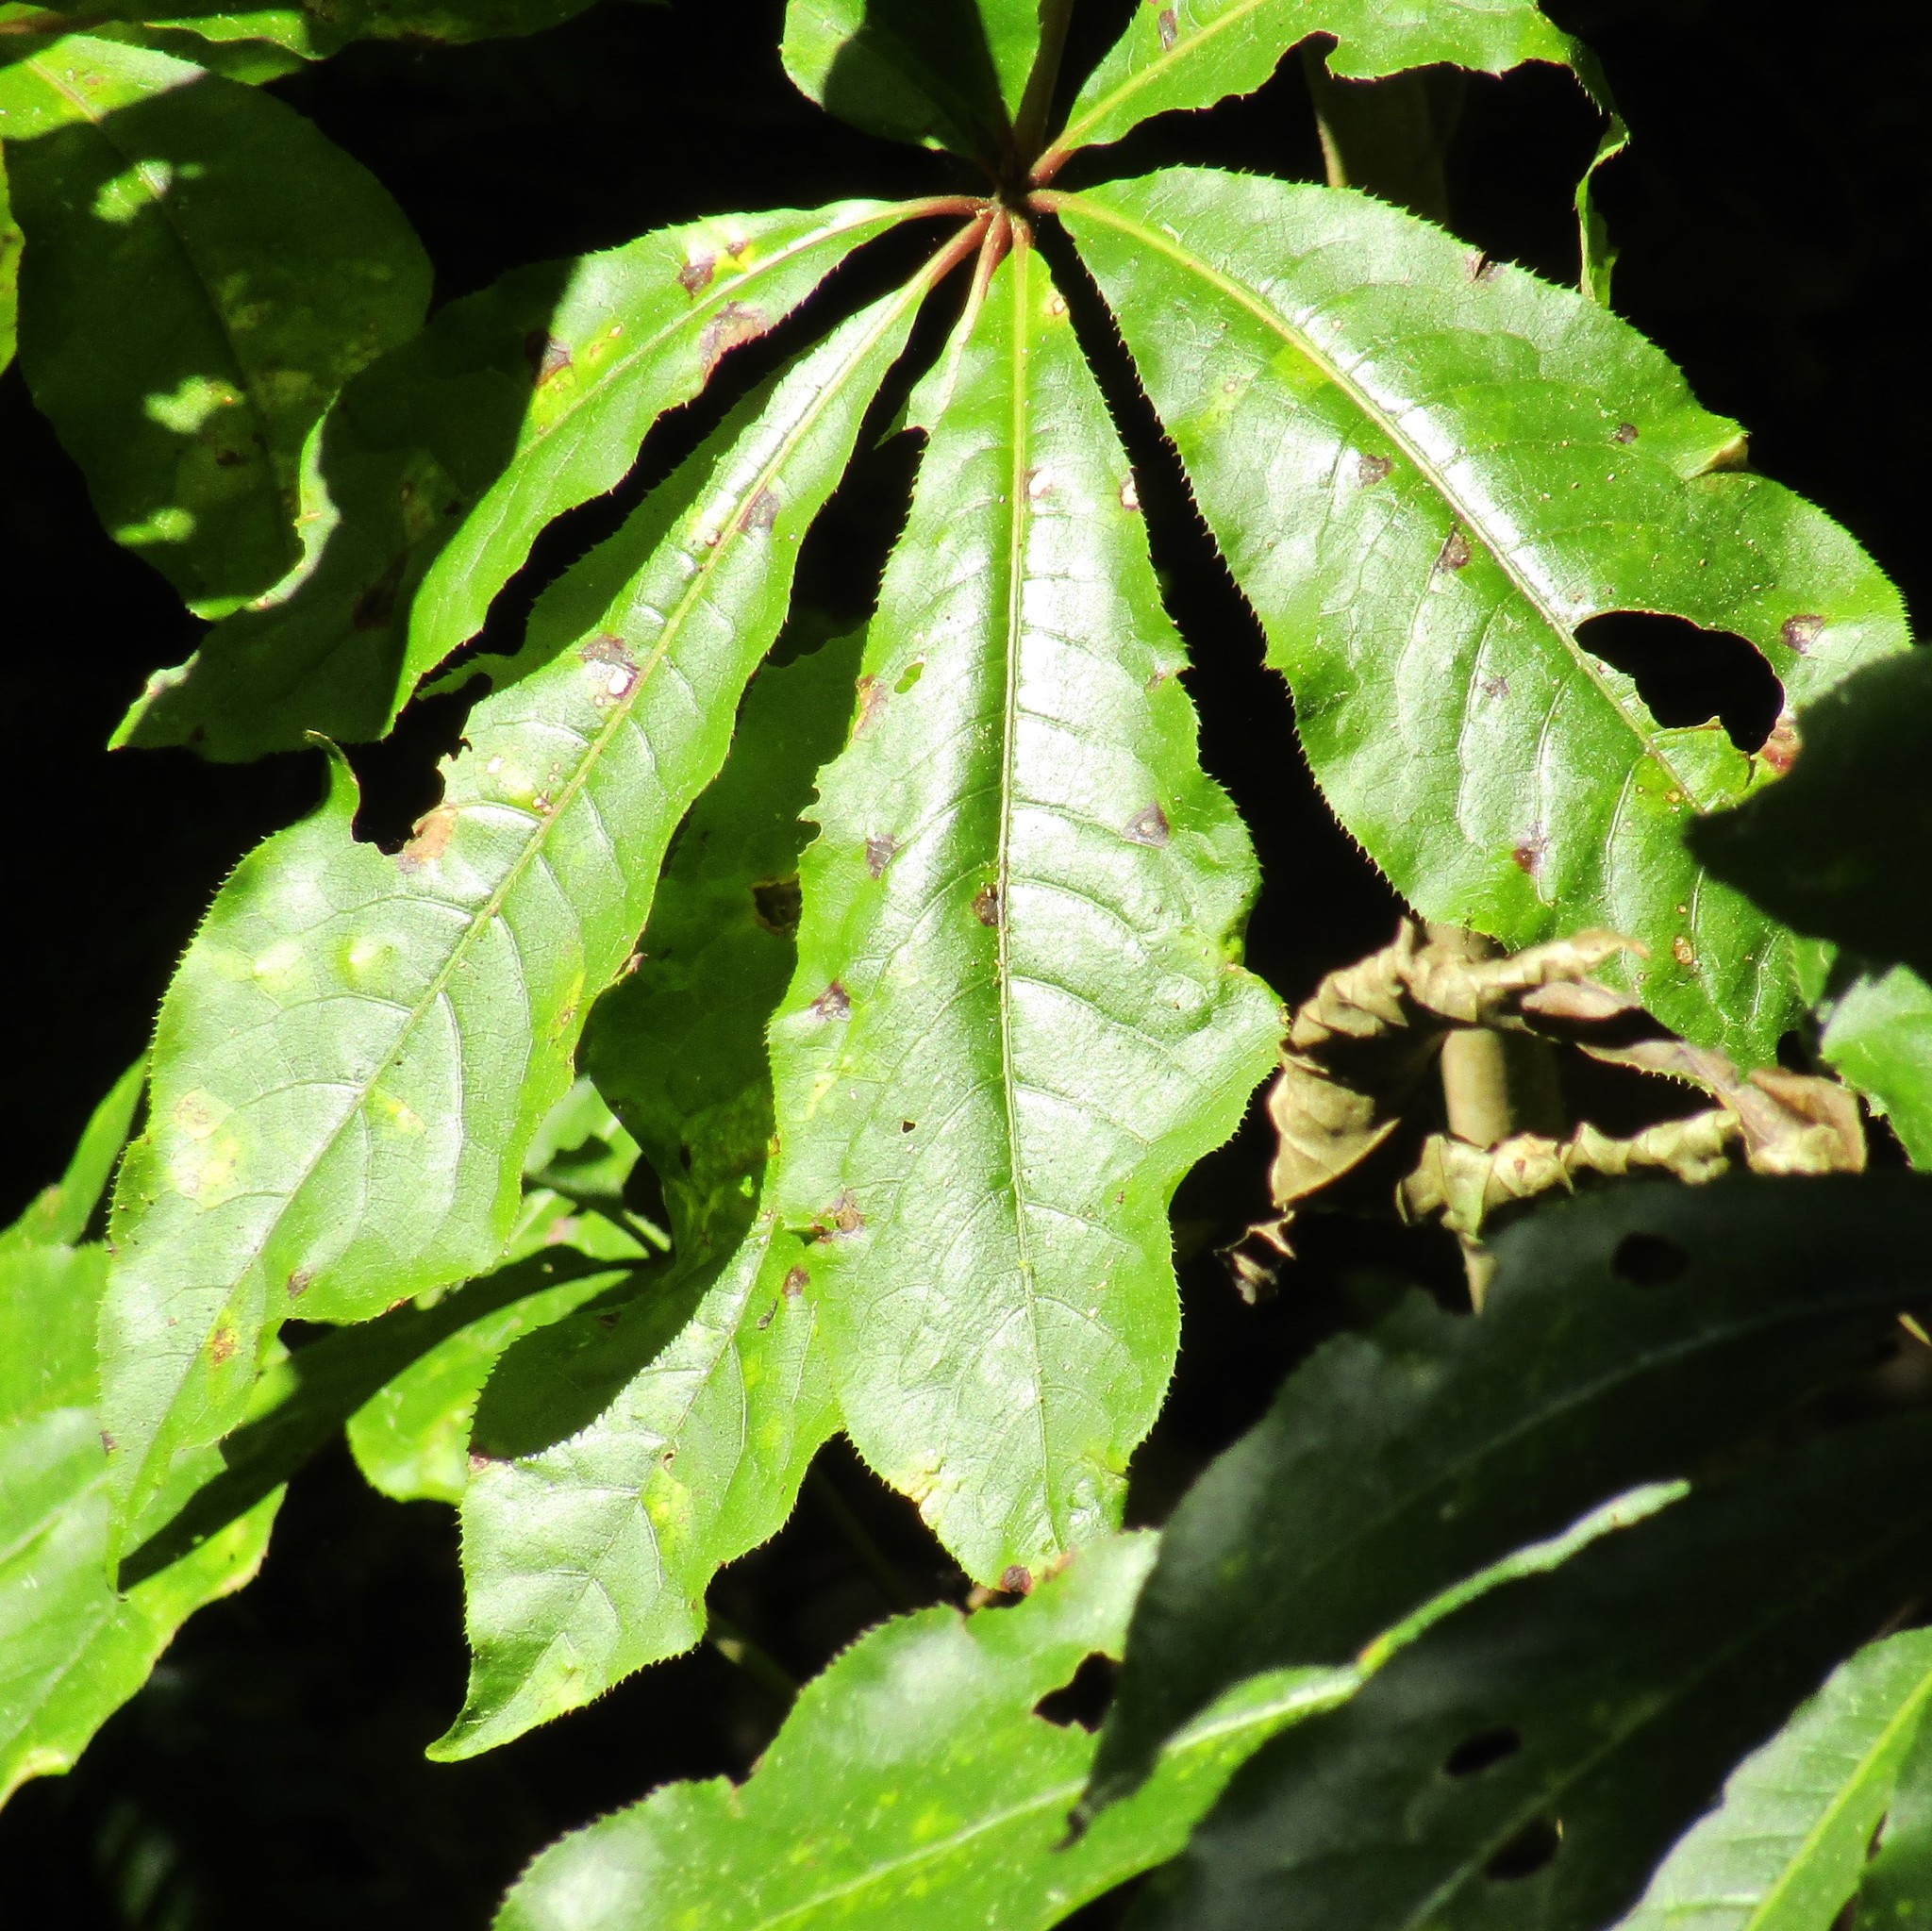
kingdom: Plantae
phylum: Tracheophyta
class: Magnoliopsida
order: Apiales
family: Araliaceae
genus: Schefflera
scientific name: Schefflera digitata
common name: Pate
